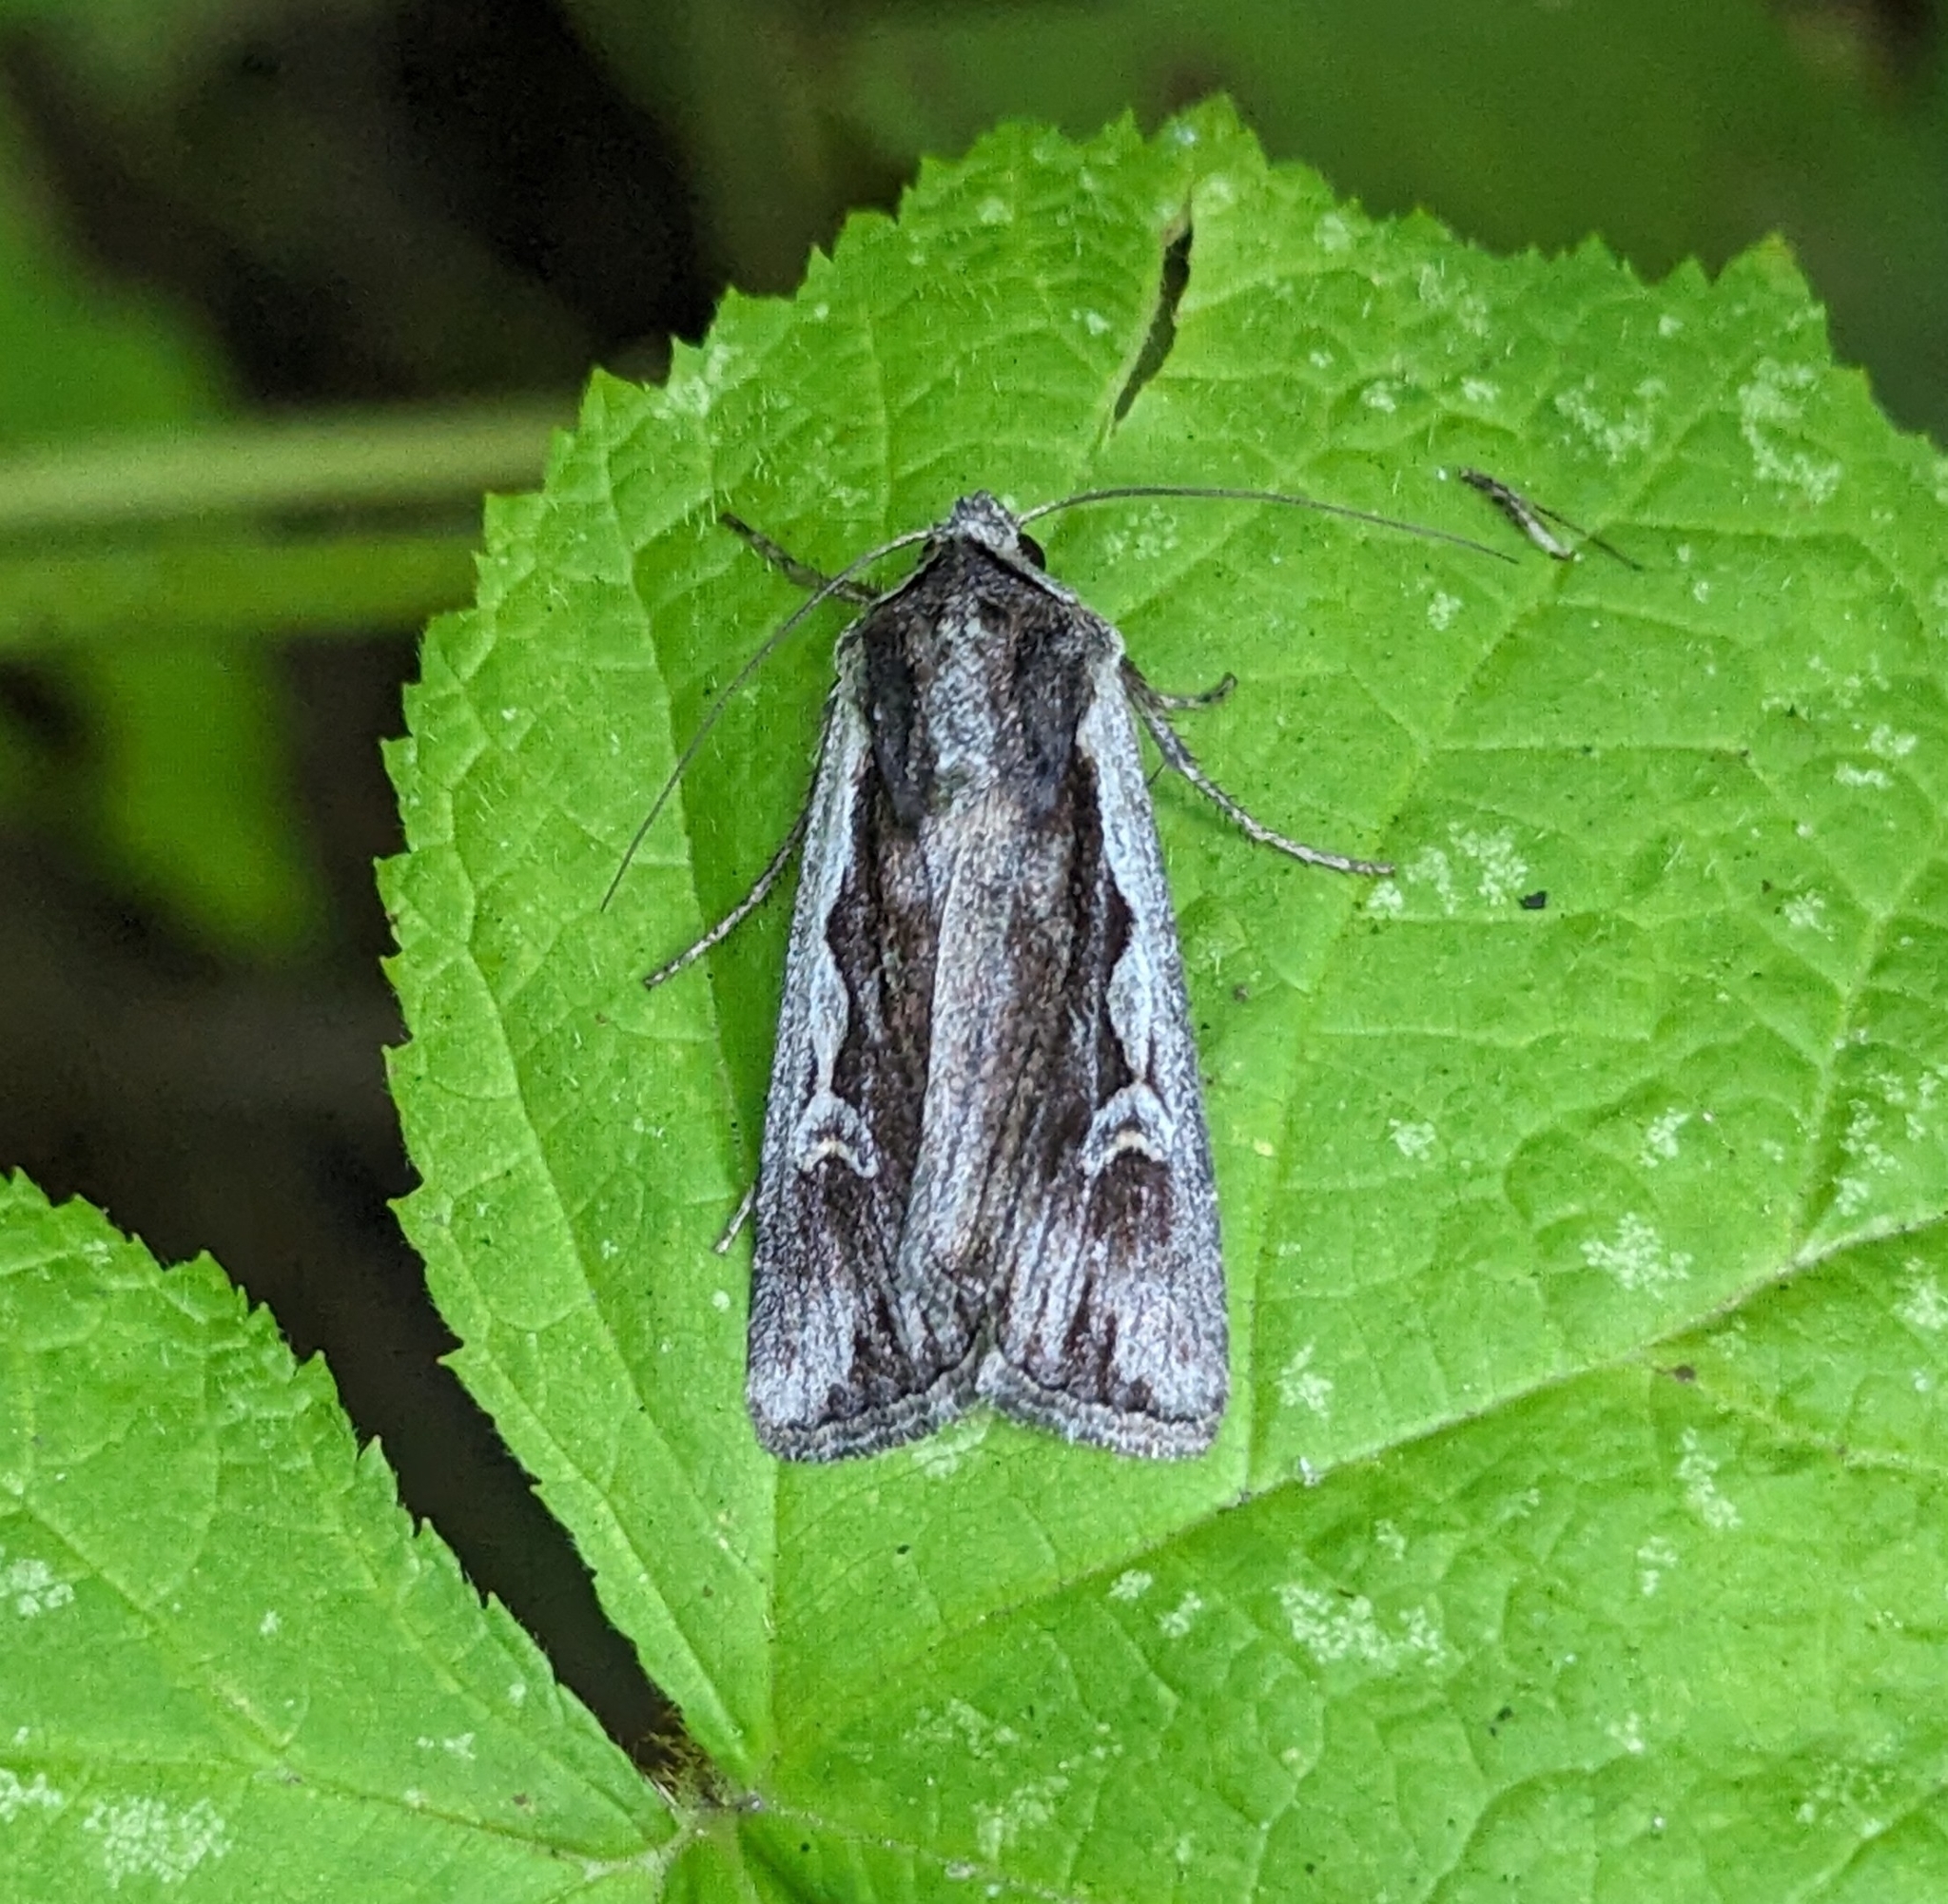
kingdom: Animalia
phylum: Arthropoda
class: Insecta
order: Lepidoptera
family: Noctuidae
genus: Euxoa
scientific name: Euxoa hollemani
